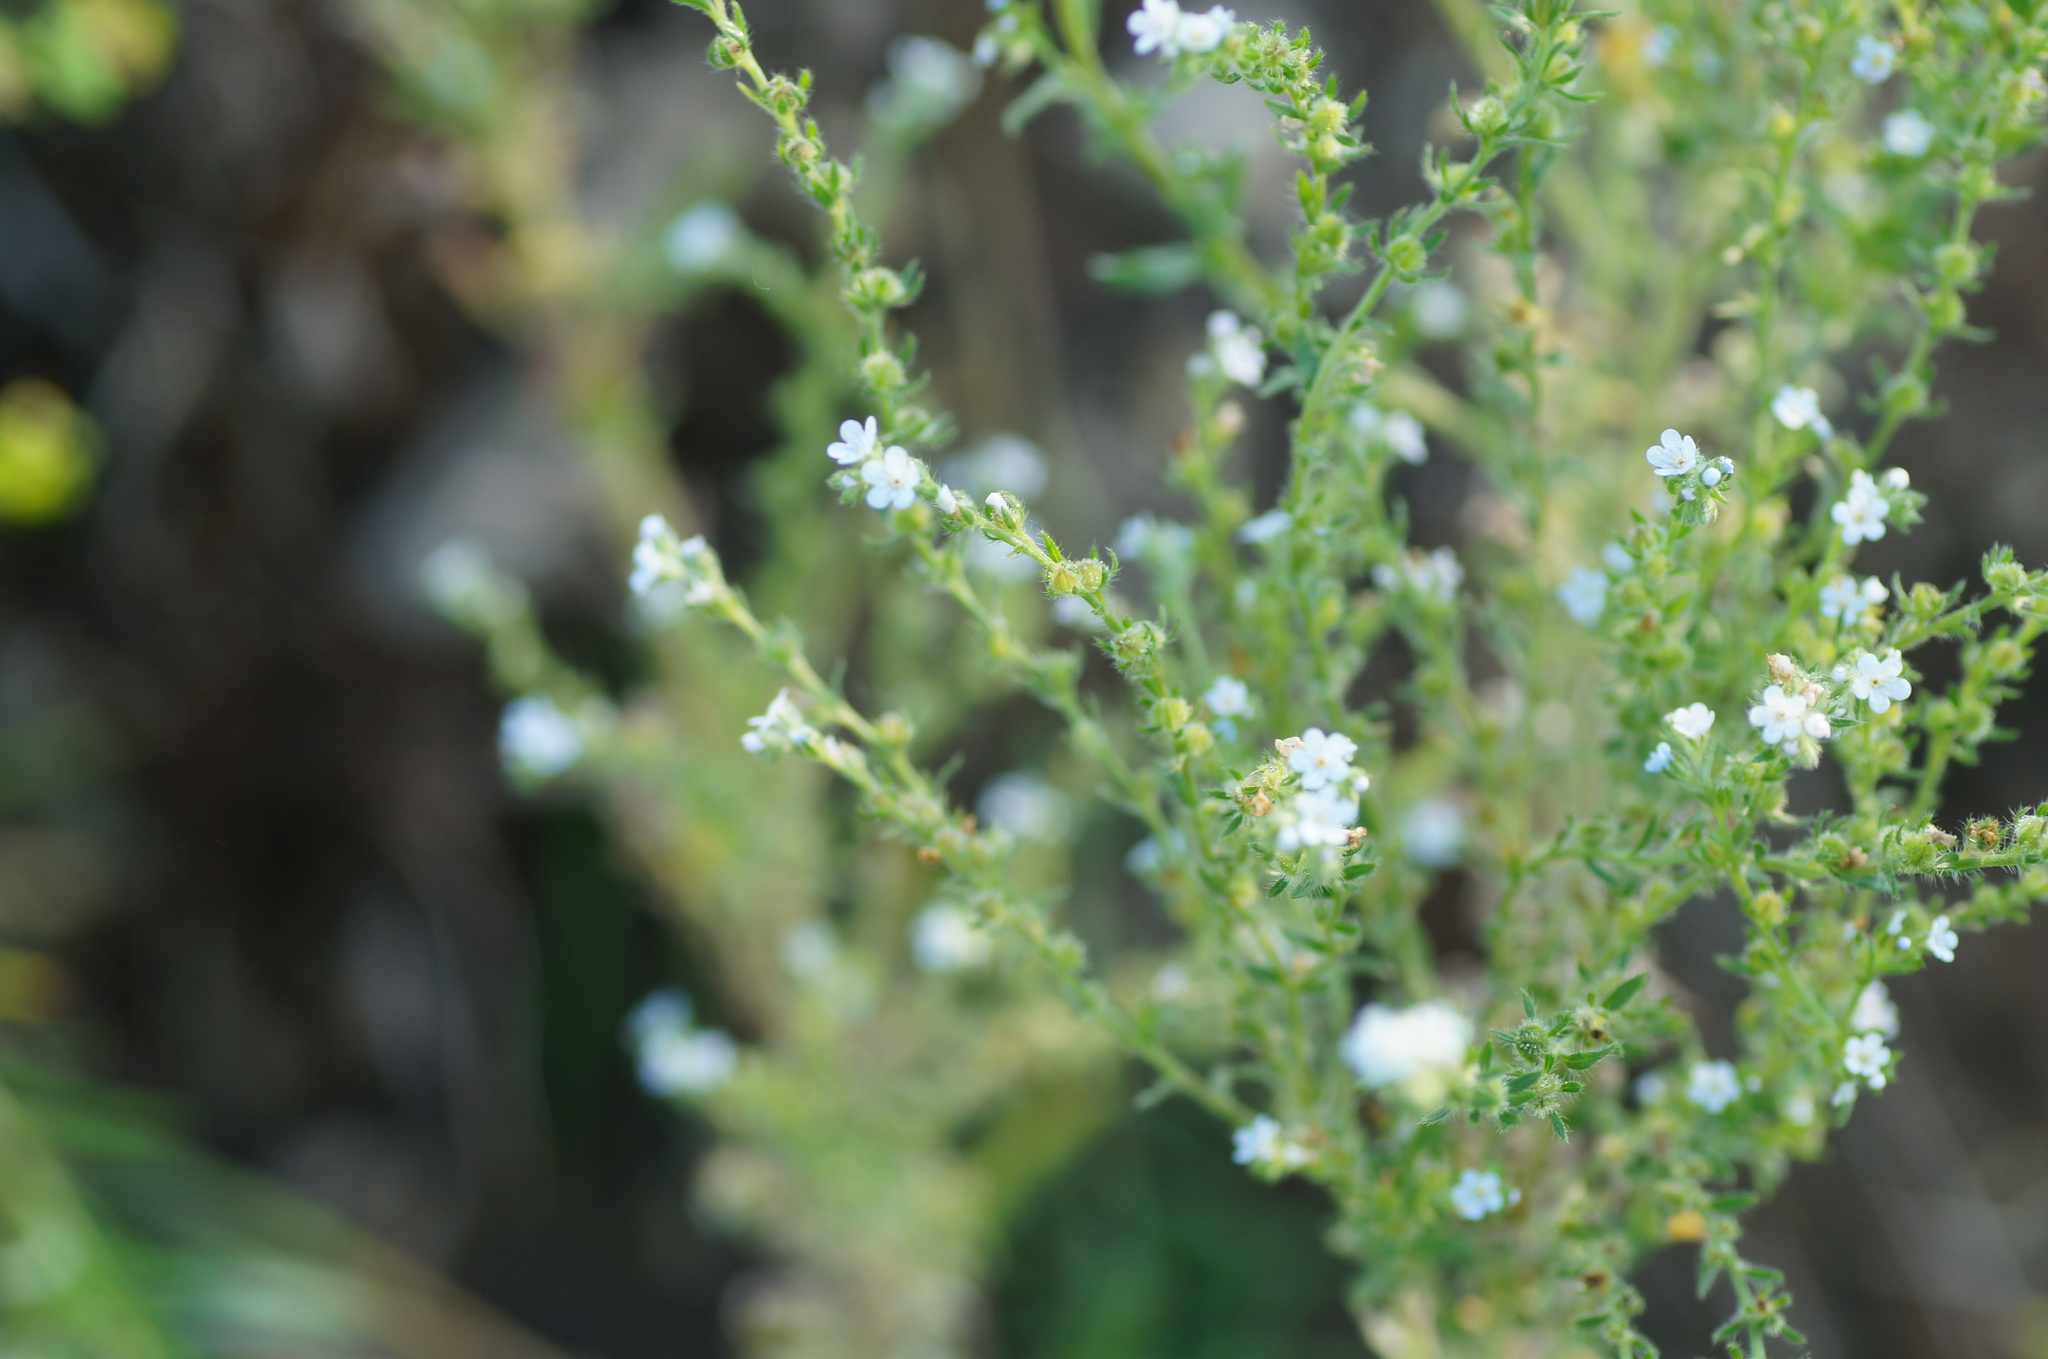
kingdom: Plantae
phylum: Tracheophyta
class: Magnoliopsida
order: Boraginales
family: Boraginaceae
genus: Lappula
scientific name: Lappula squarrosa
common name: European stickseed
